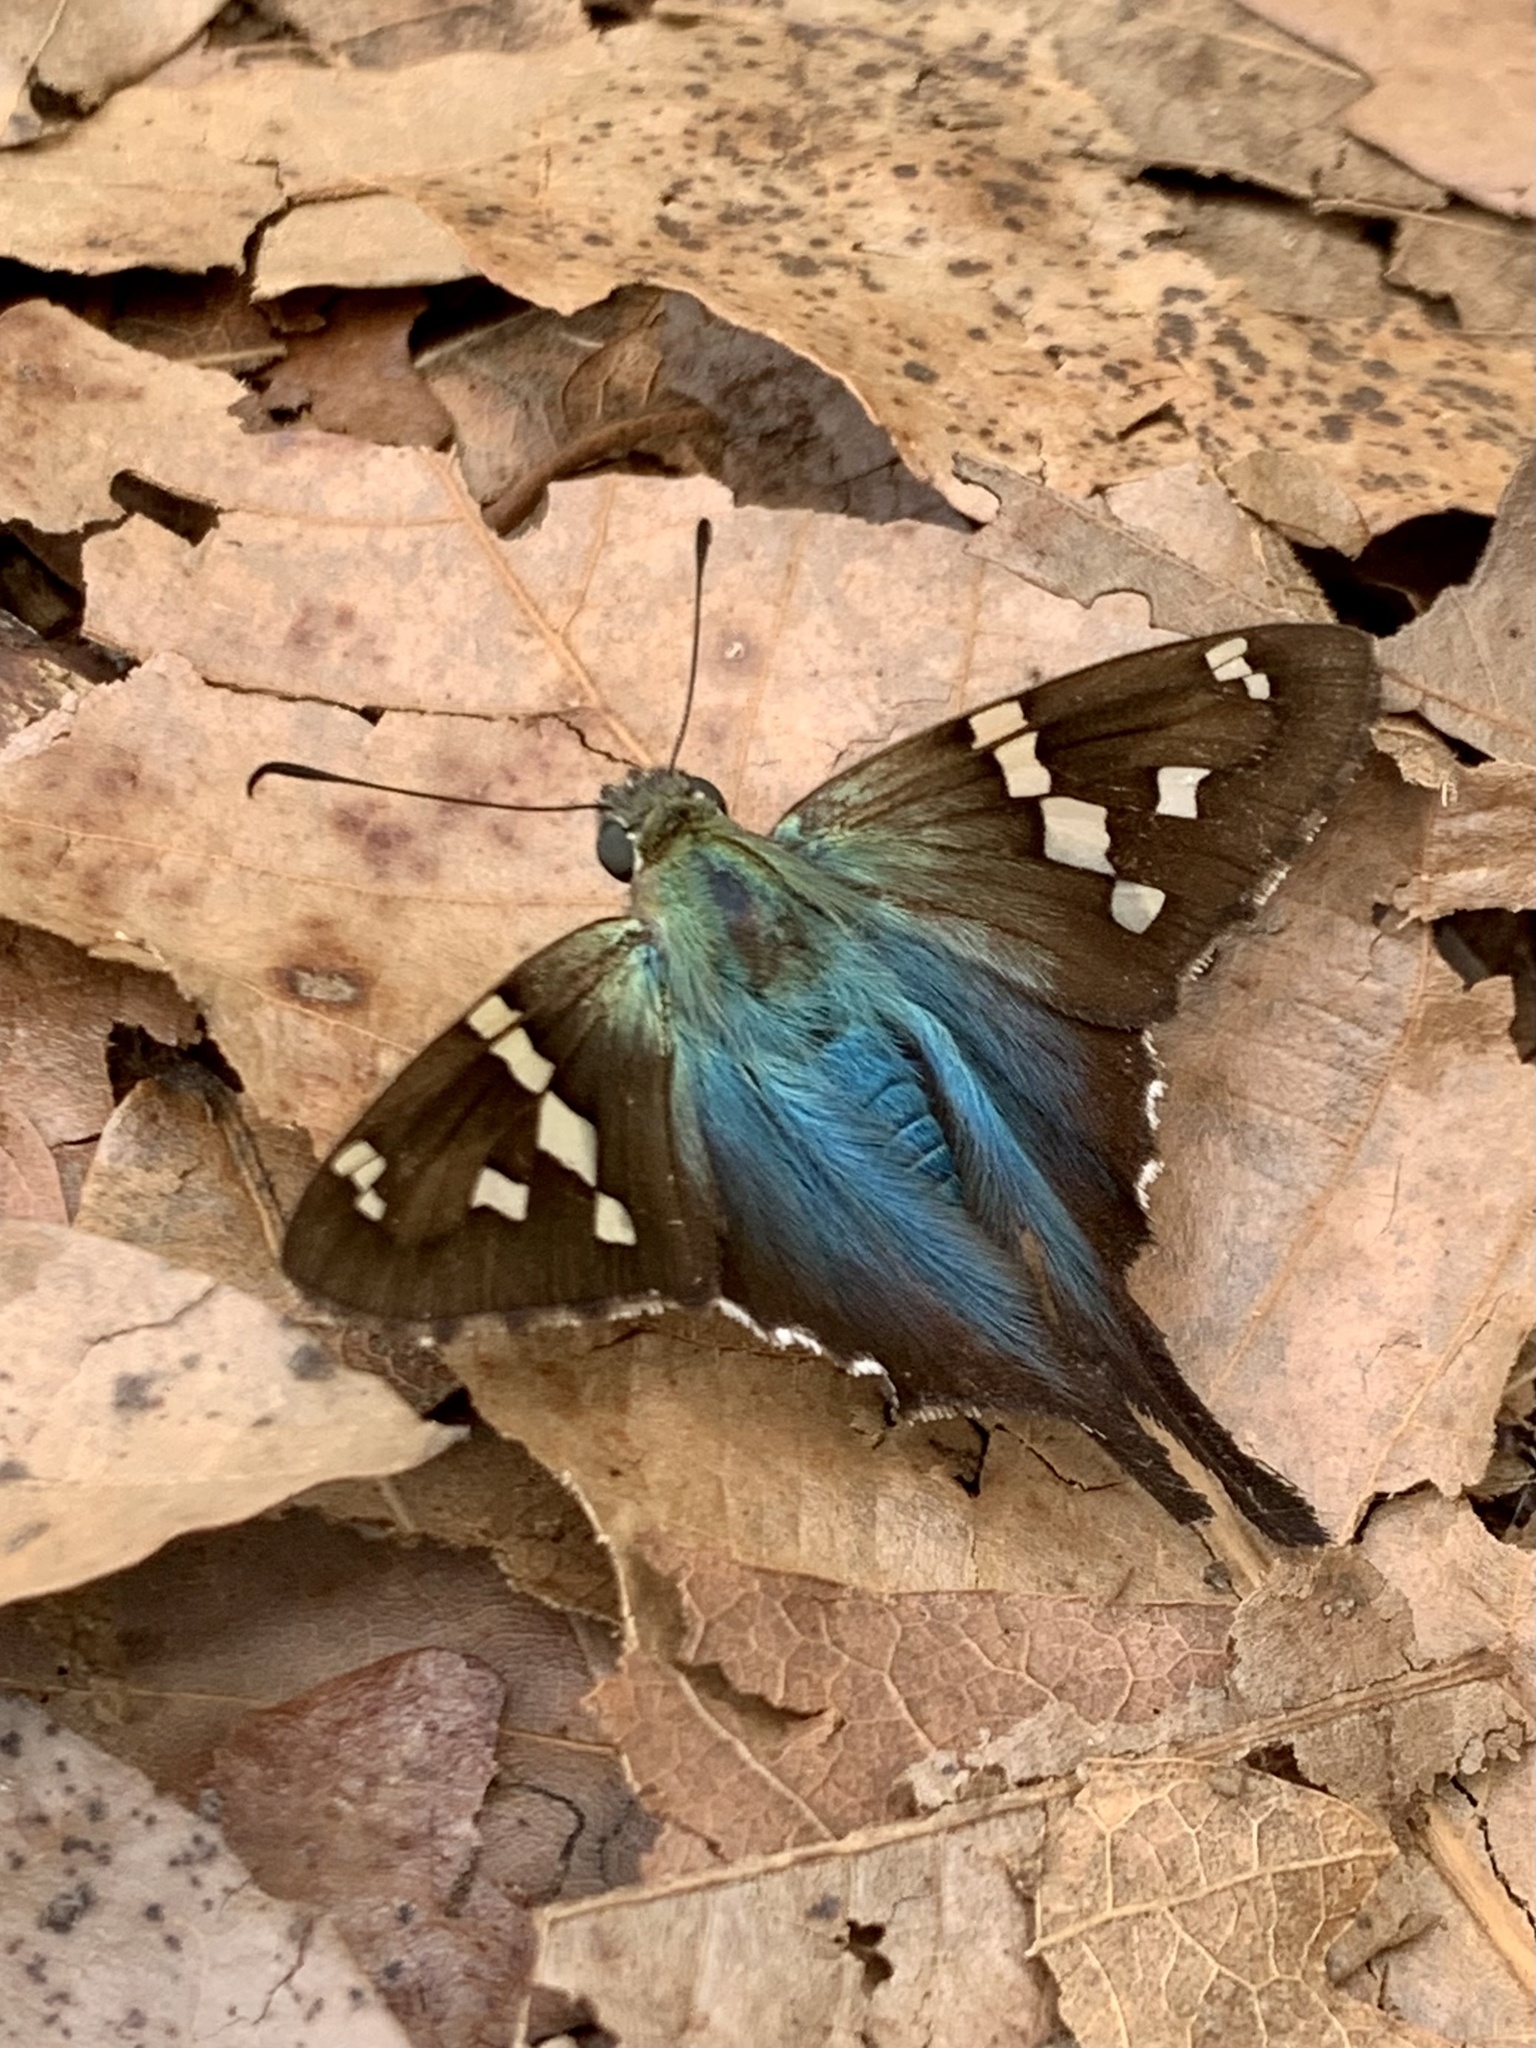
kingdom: Animalia
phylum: Arthropoda
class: Insecta
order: Lepidoptera
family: Hesperiidae
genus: Urbanus
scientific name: Urbanus proteus
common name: Long-tailed skipper
